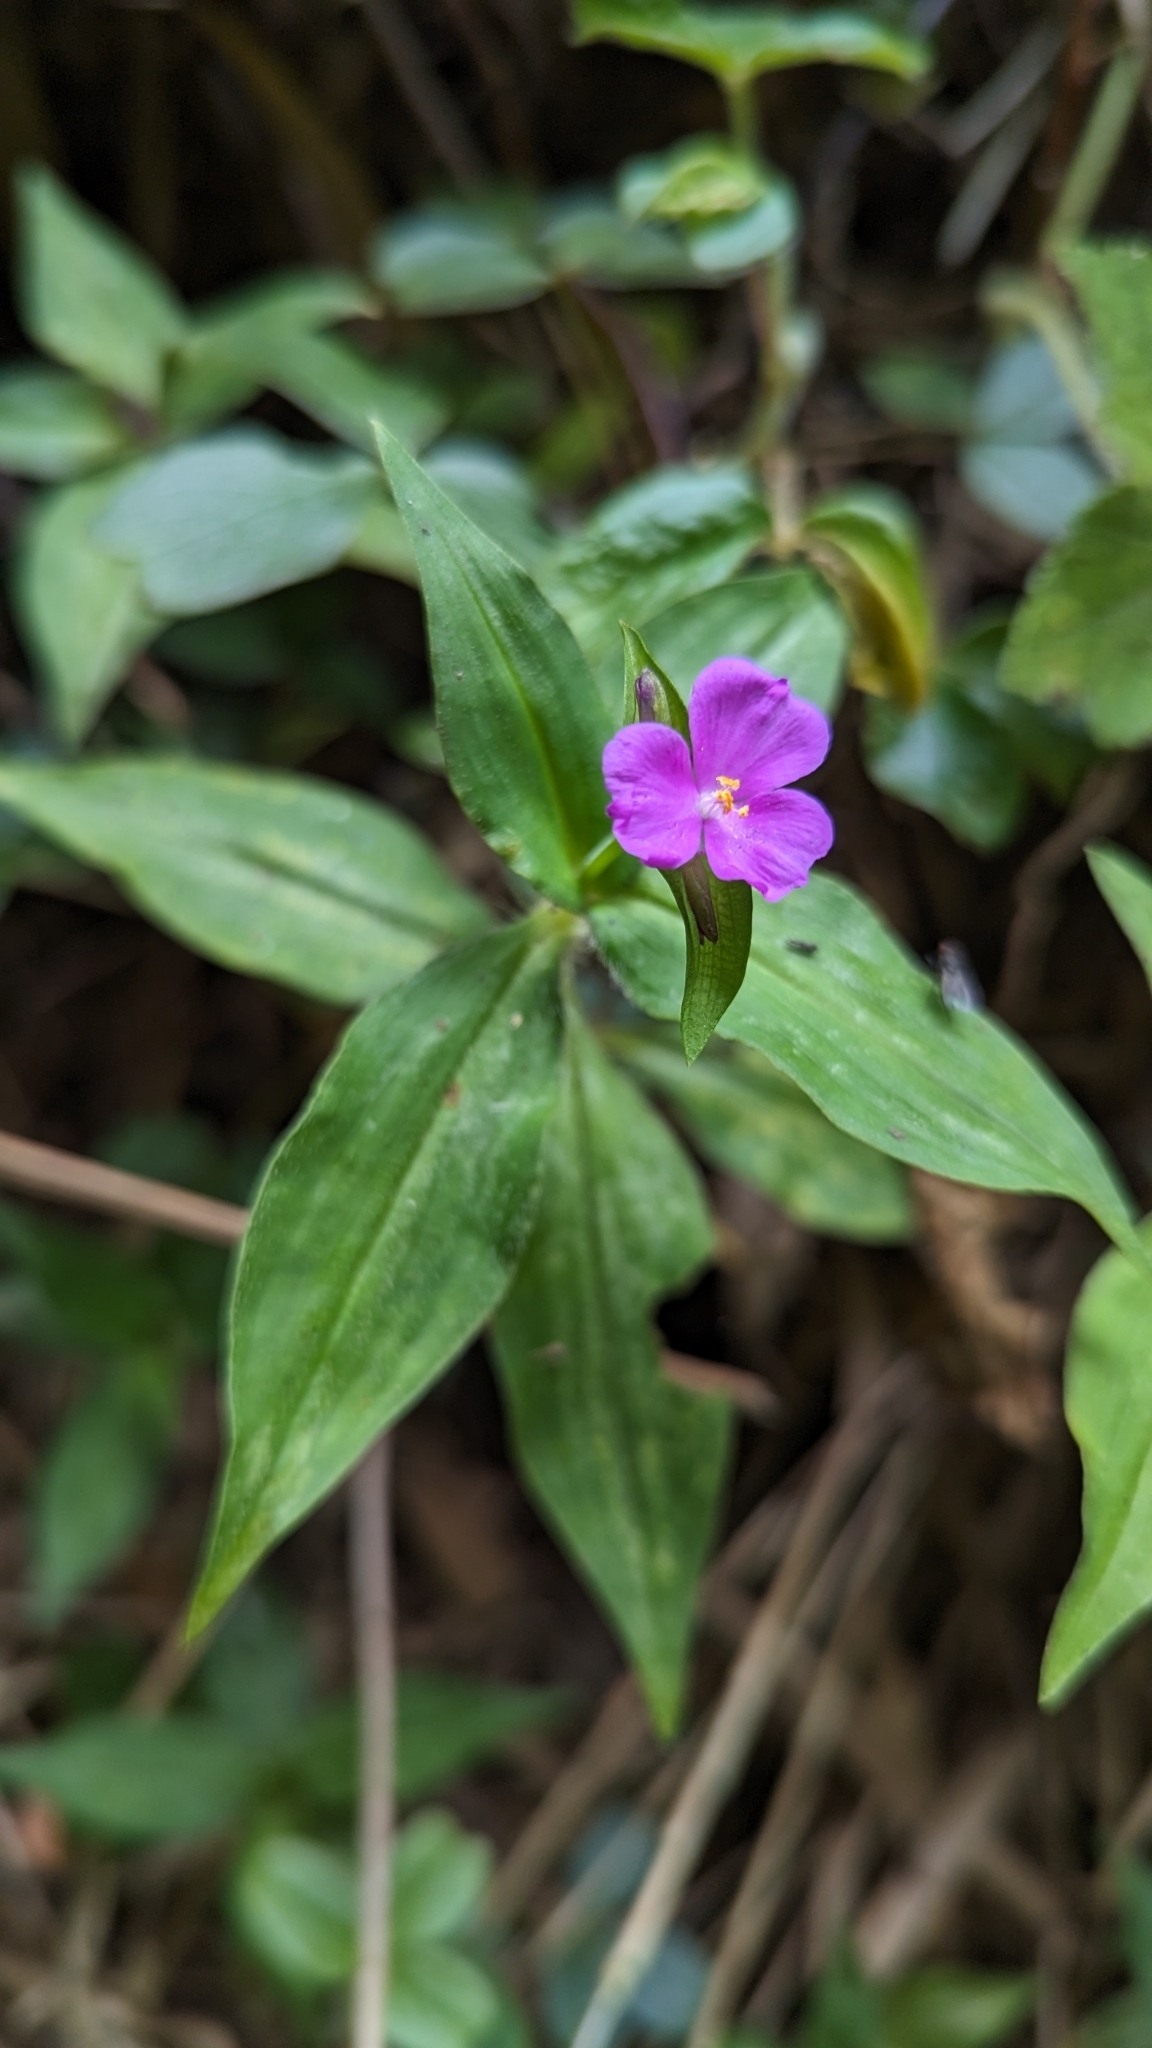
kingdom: Plantae
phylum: Tracheophyta
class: Liliopsida
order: Commelinales
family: Commelinaceae
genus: Tradescantia
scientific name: Tradescantia poelliae
